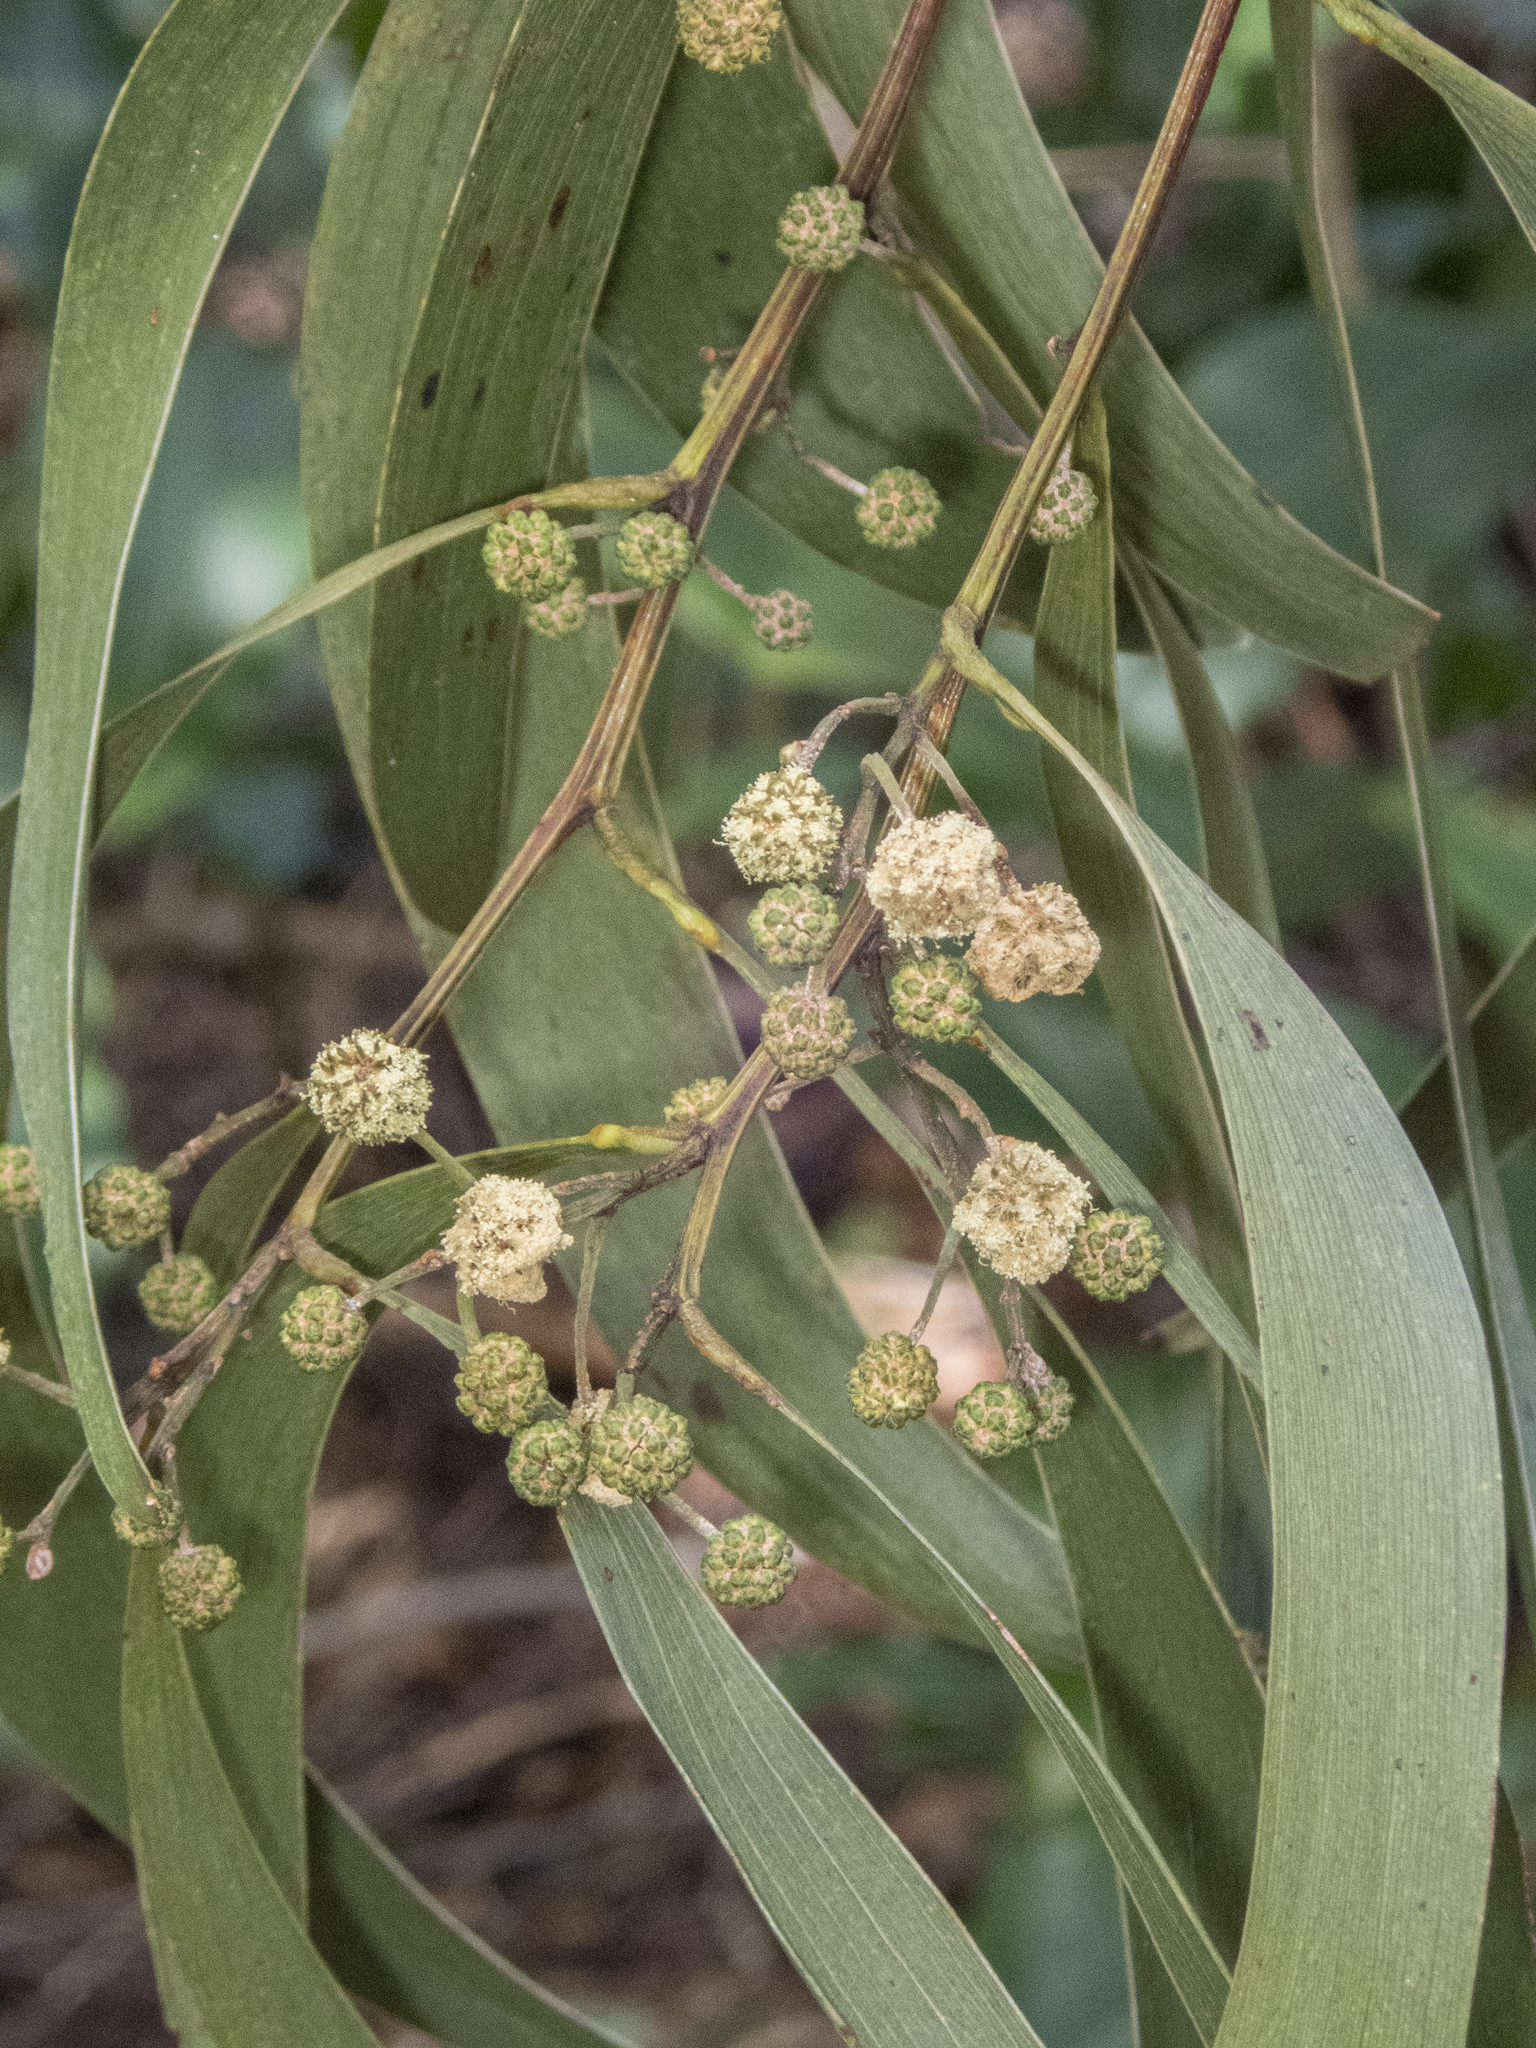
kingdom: Plantae
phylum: Tracheophyta
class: Magnoliopsida
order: Fabales
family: Fabaceae
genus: Acacia
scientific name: Acacia koa
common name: Gray koa
